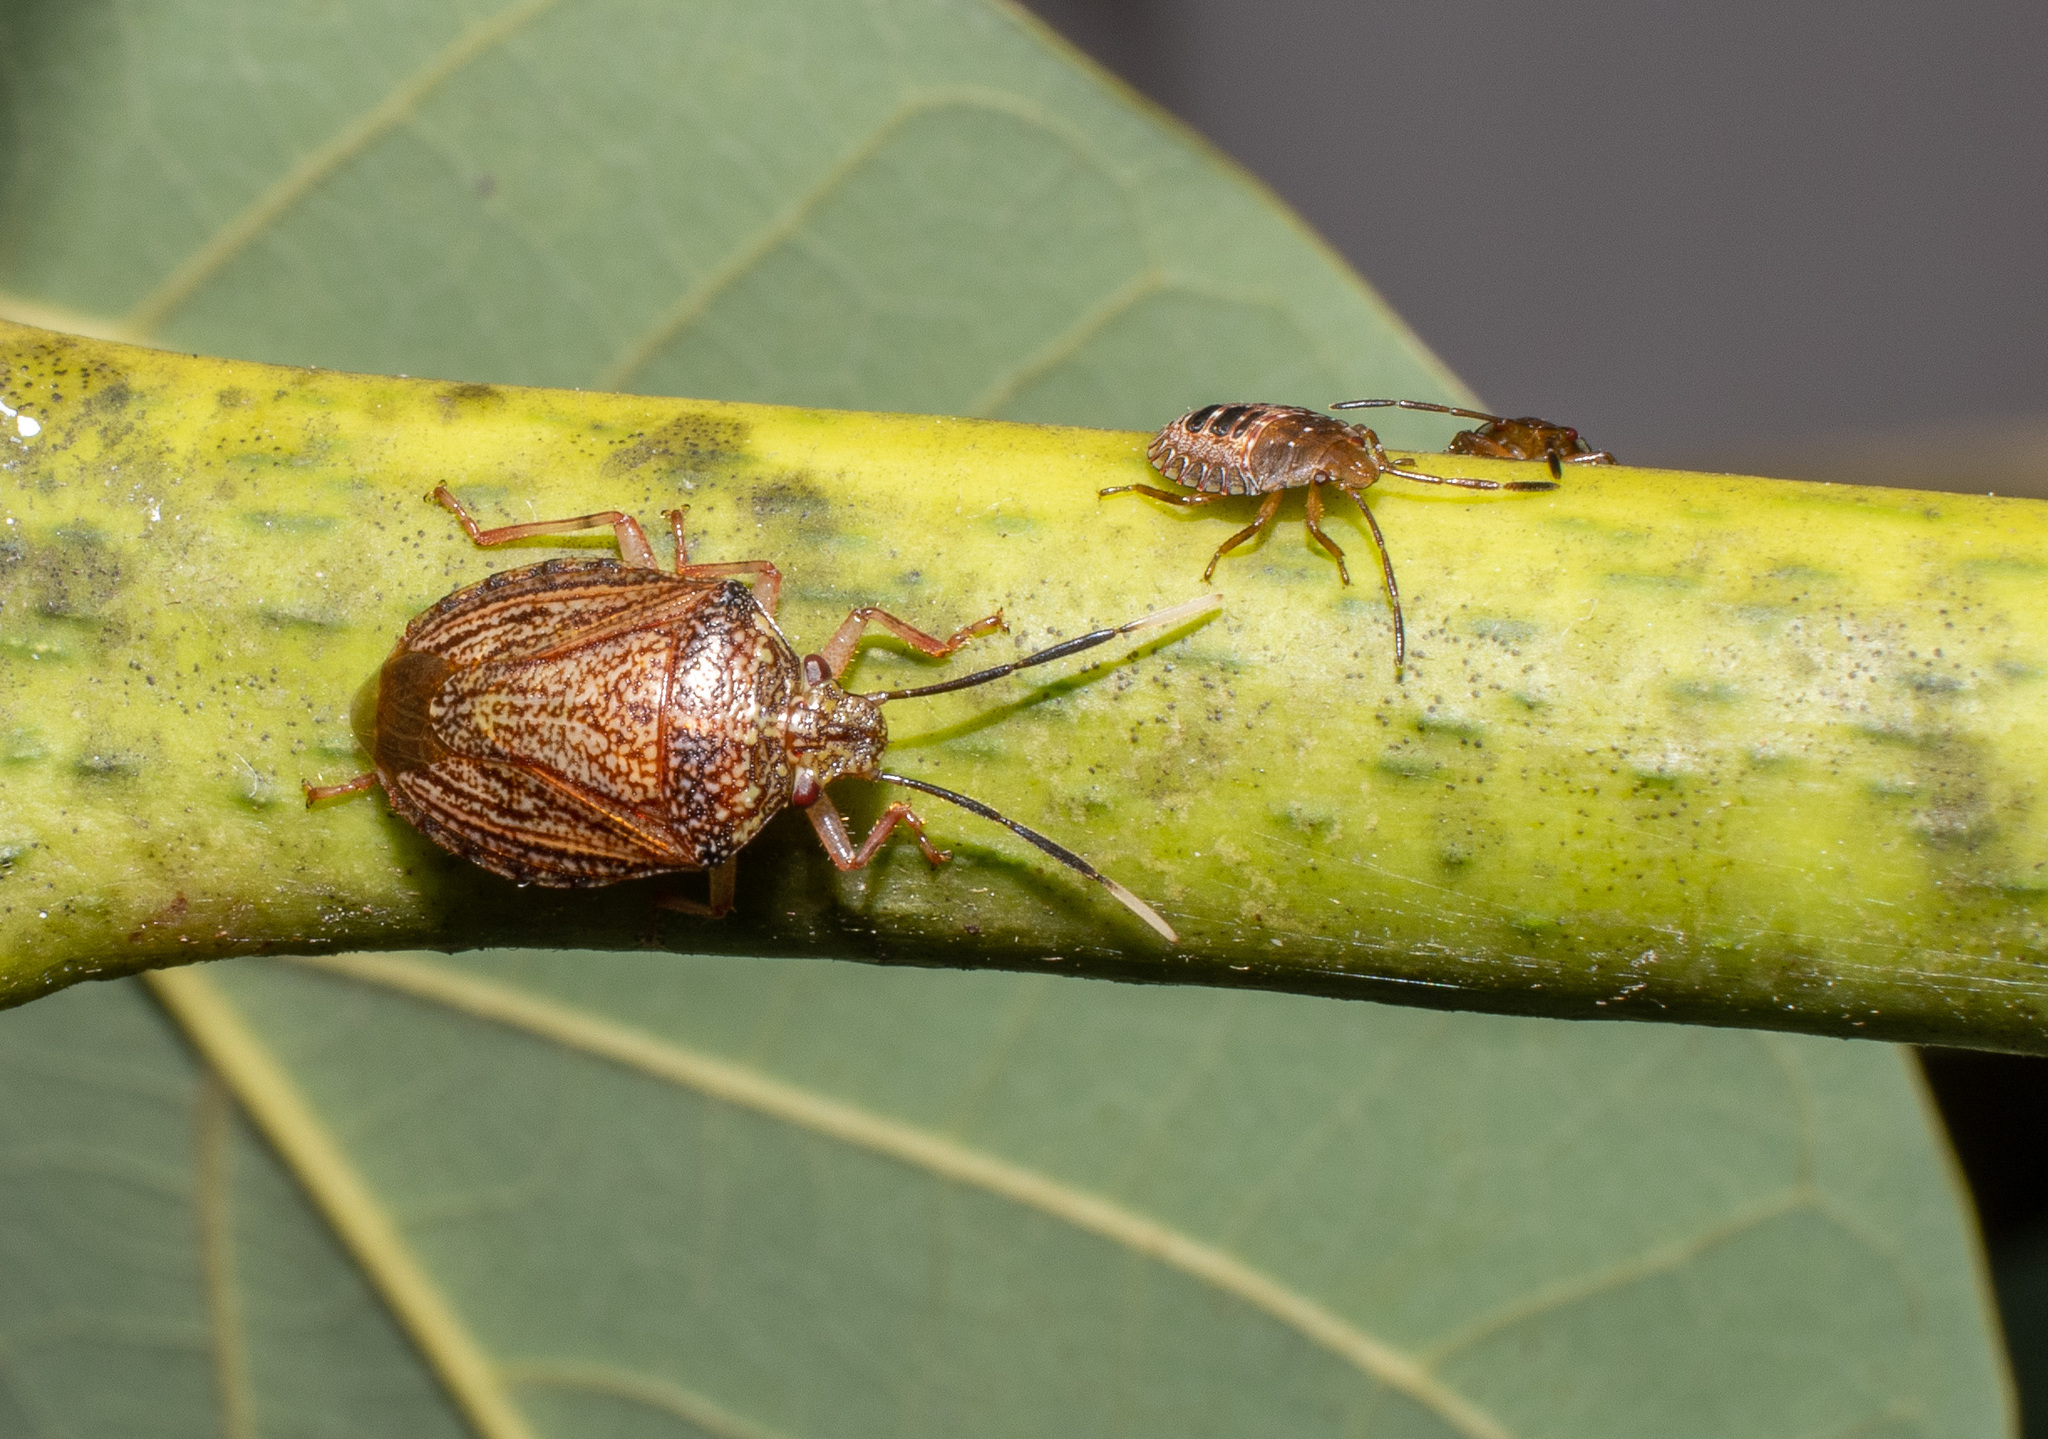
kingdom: Animalia
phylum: Arthropoda
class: Insecta
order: Hemiptera
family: Pentatomidae
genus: Antiteuchus
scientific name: Antiteuchus sepulcralis
